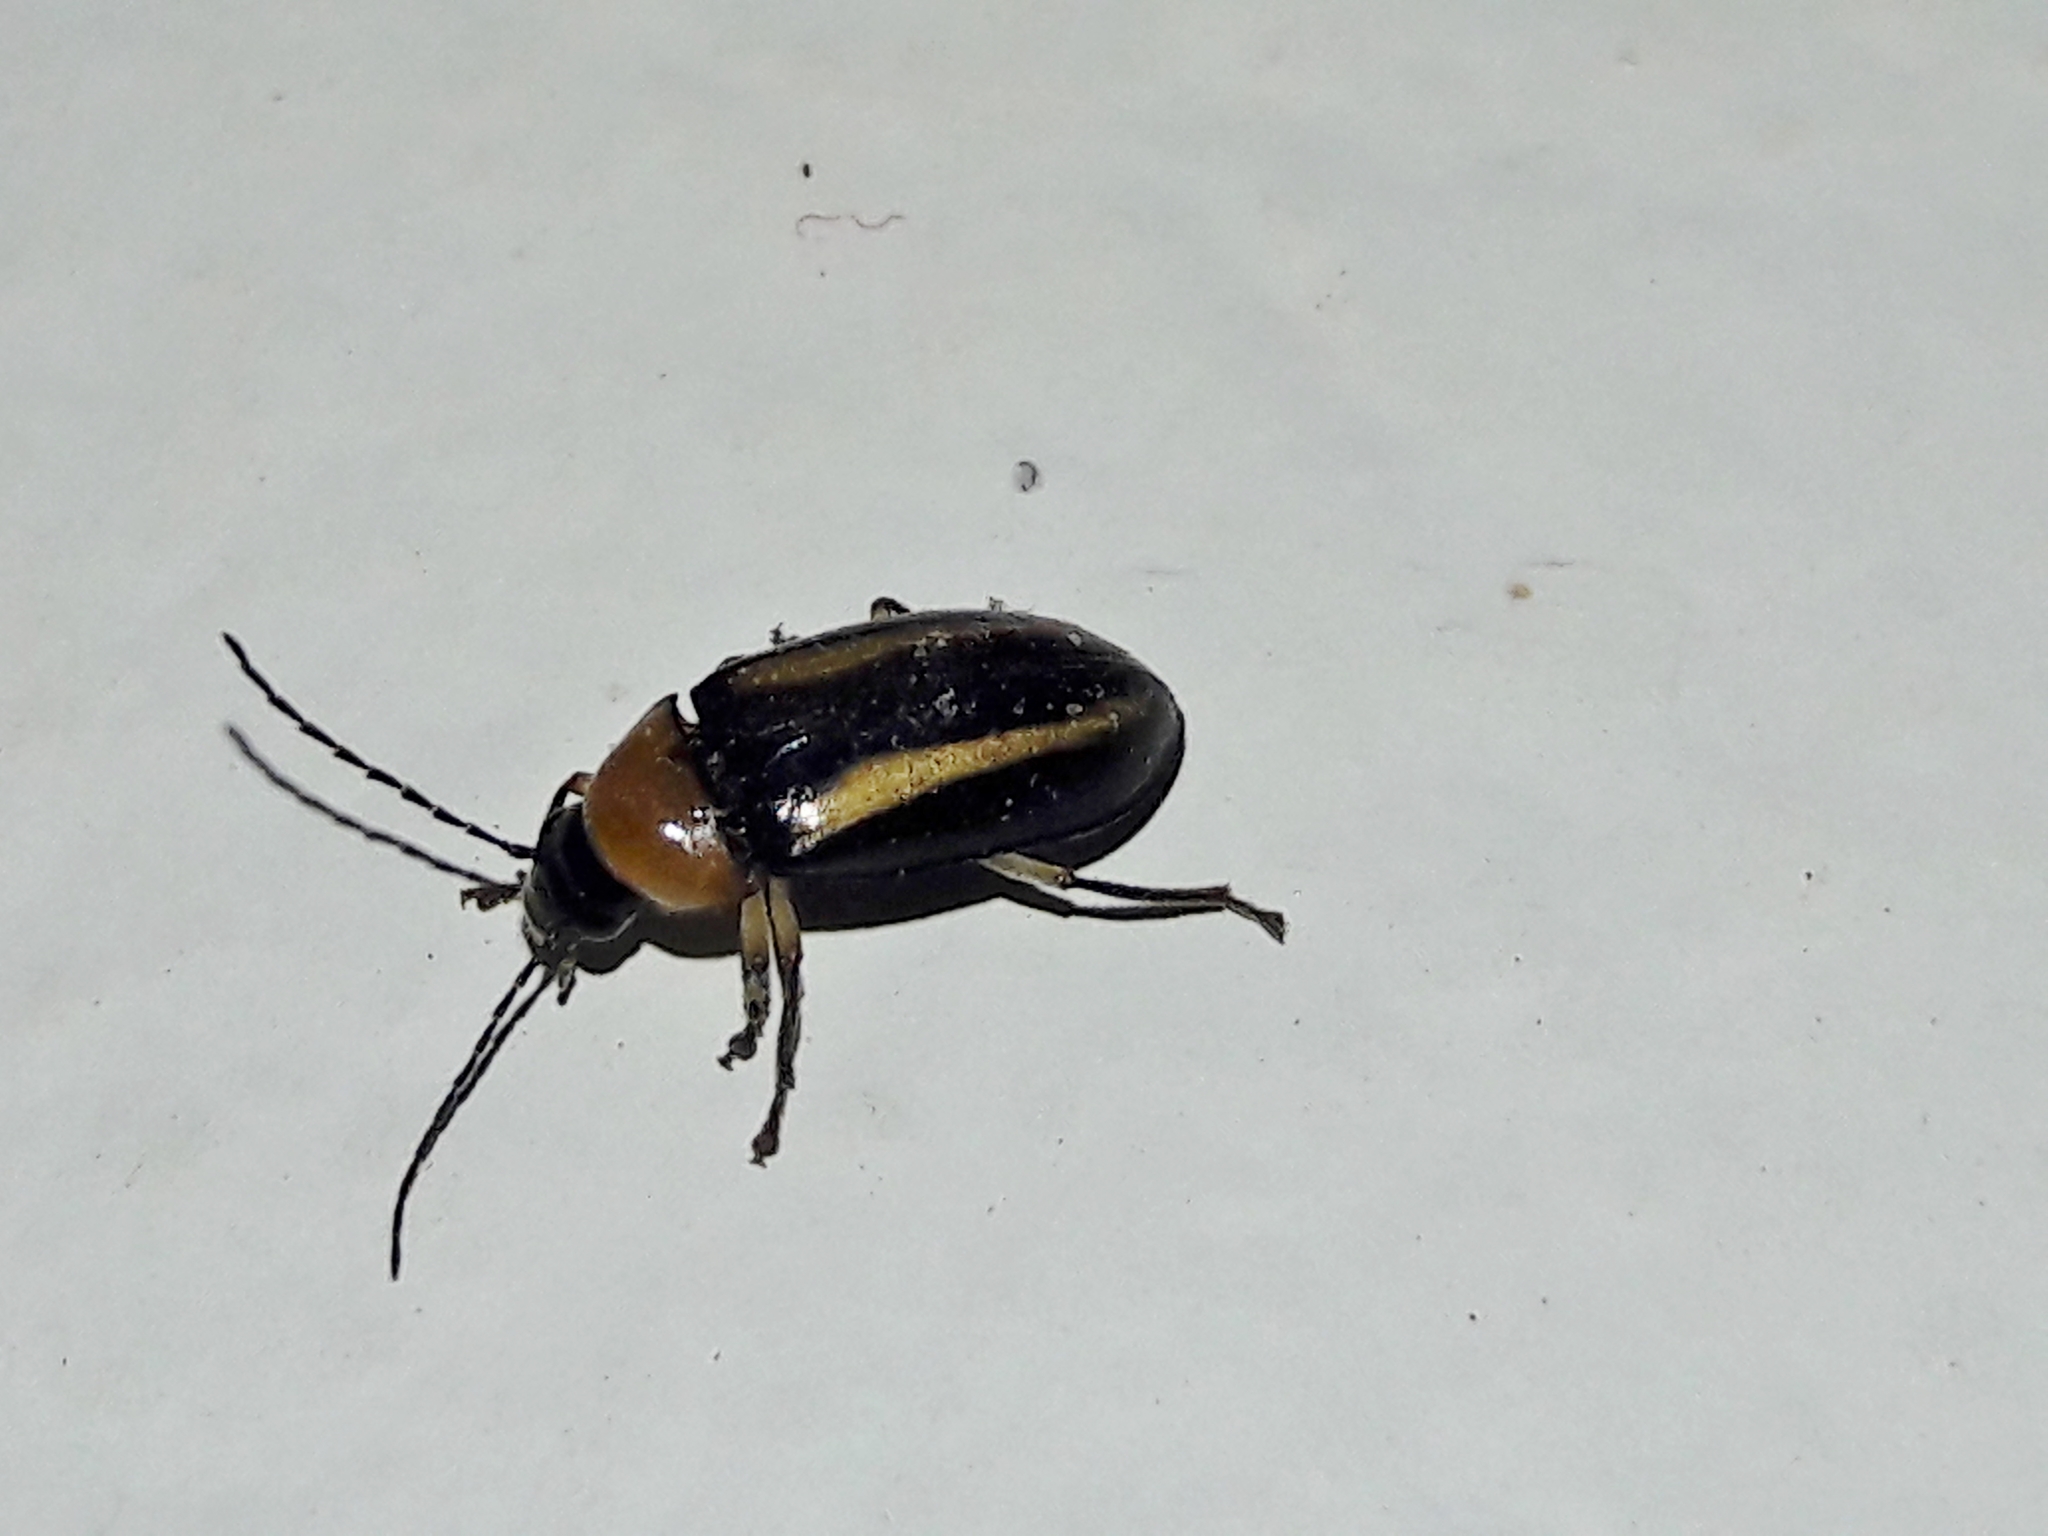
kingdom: Animalia
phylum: Arthropoda
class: Insecta
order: Coleoptera
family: Ptilodactylidae
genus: Ptilodactyla
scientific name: Ptilodactyla
